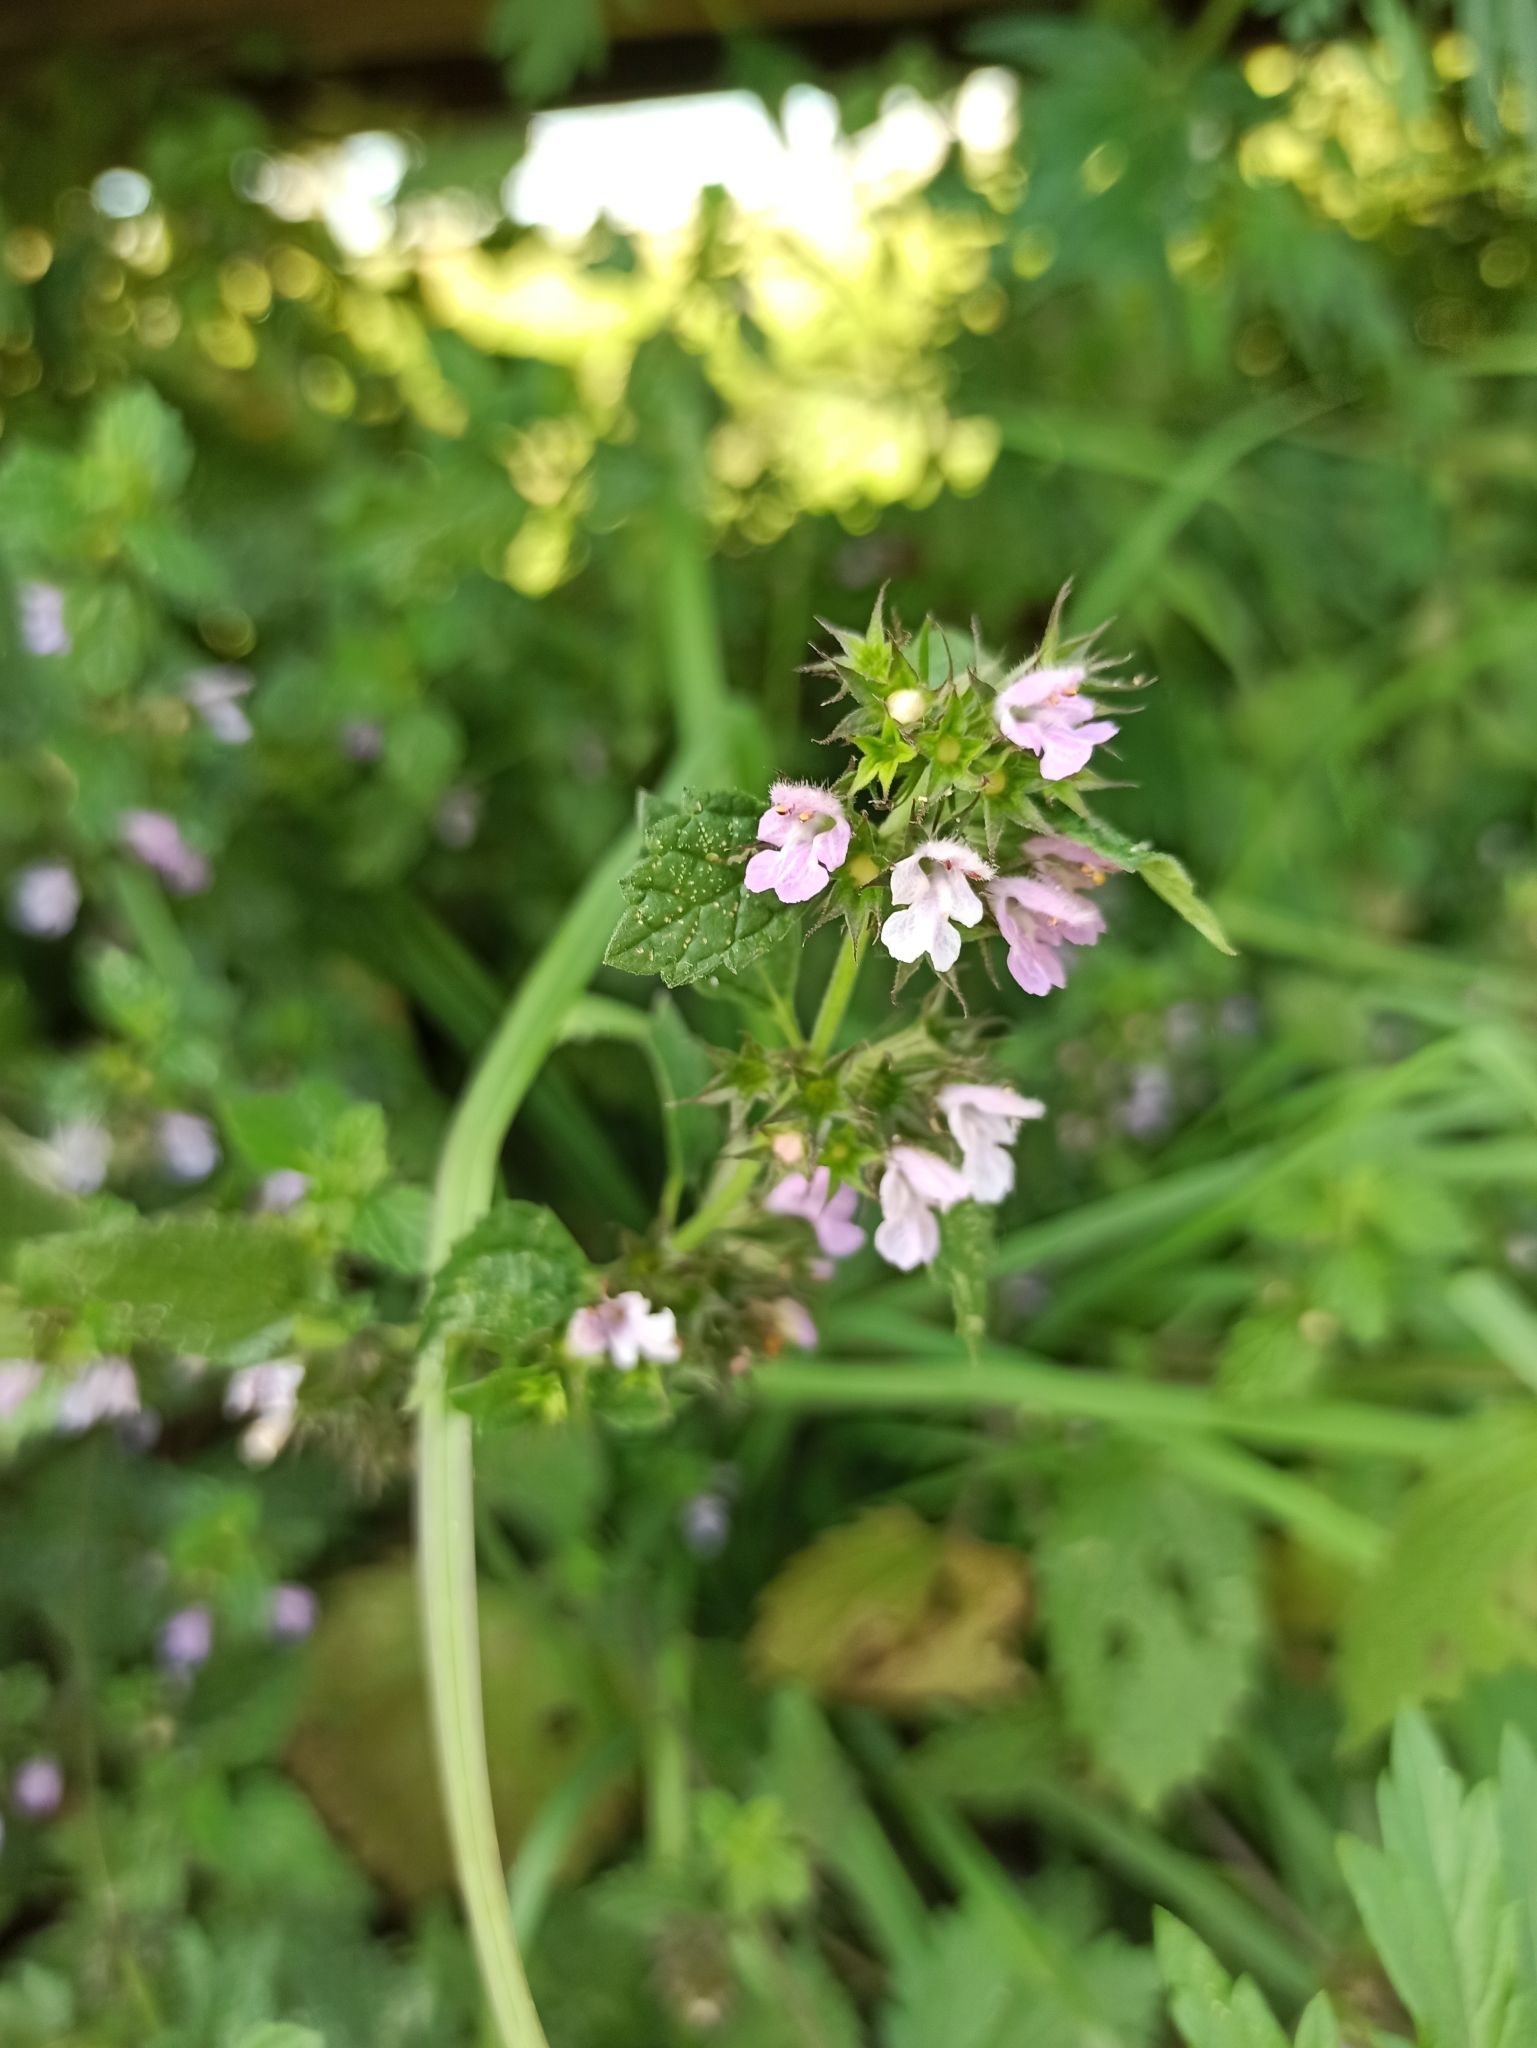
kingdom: Plantae
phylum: Tracheophyta
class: Magnoliopsida
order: Lamiales
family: Lamiaceae
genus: Ballota
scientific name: Ballota nigra
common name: Black horehound
